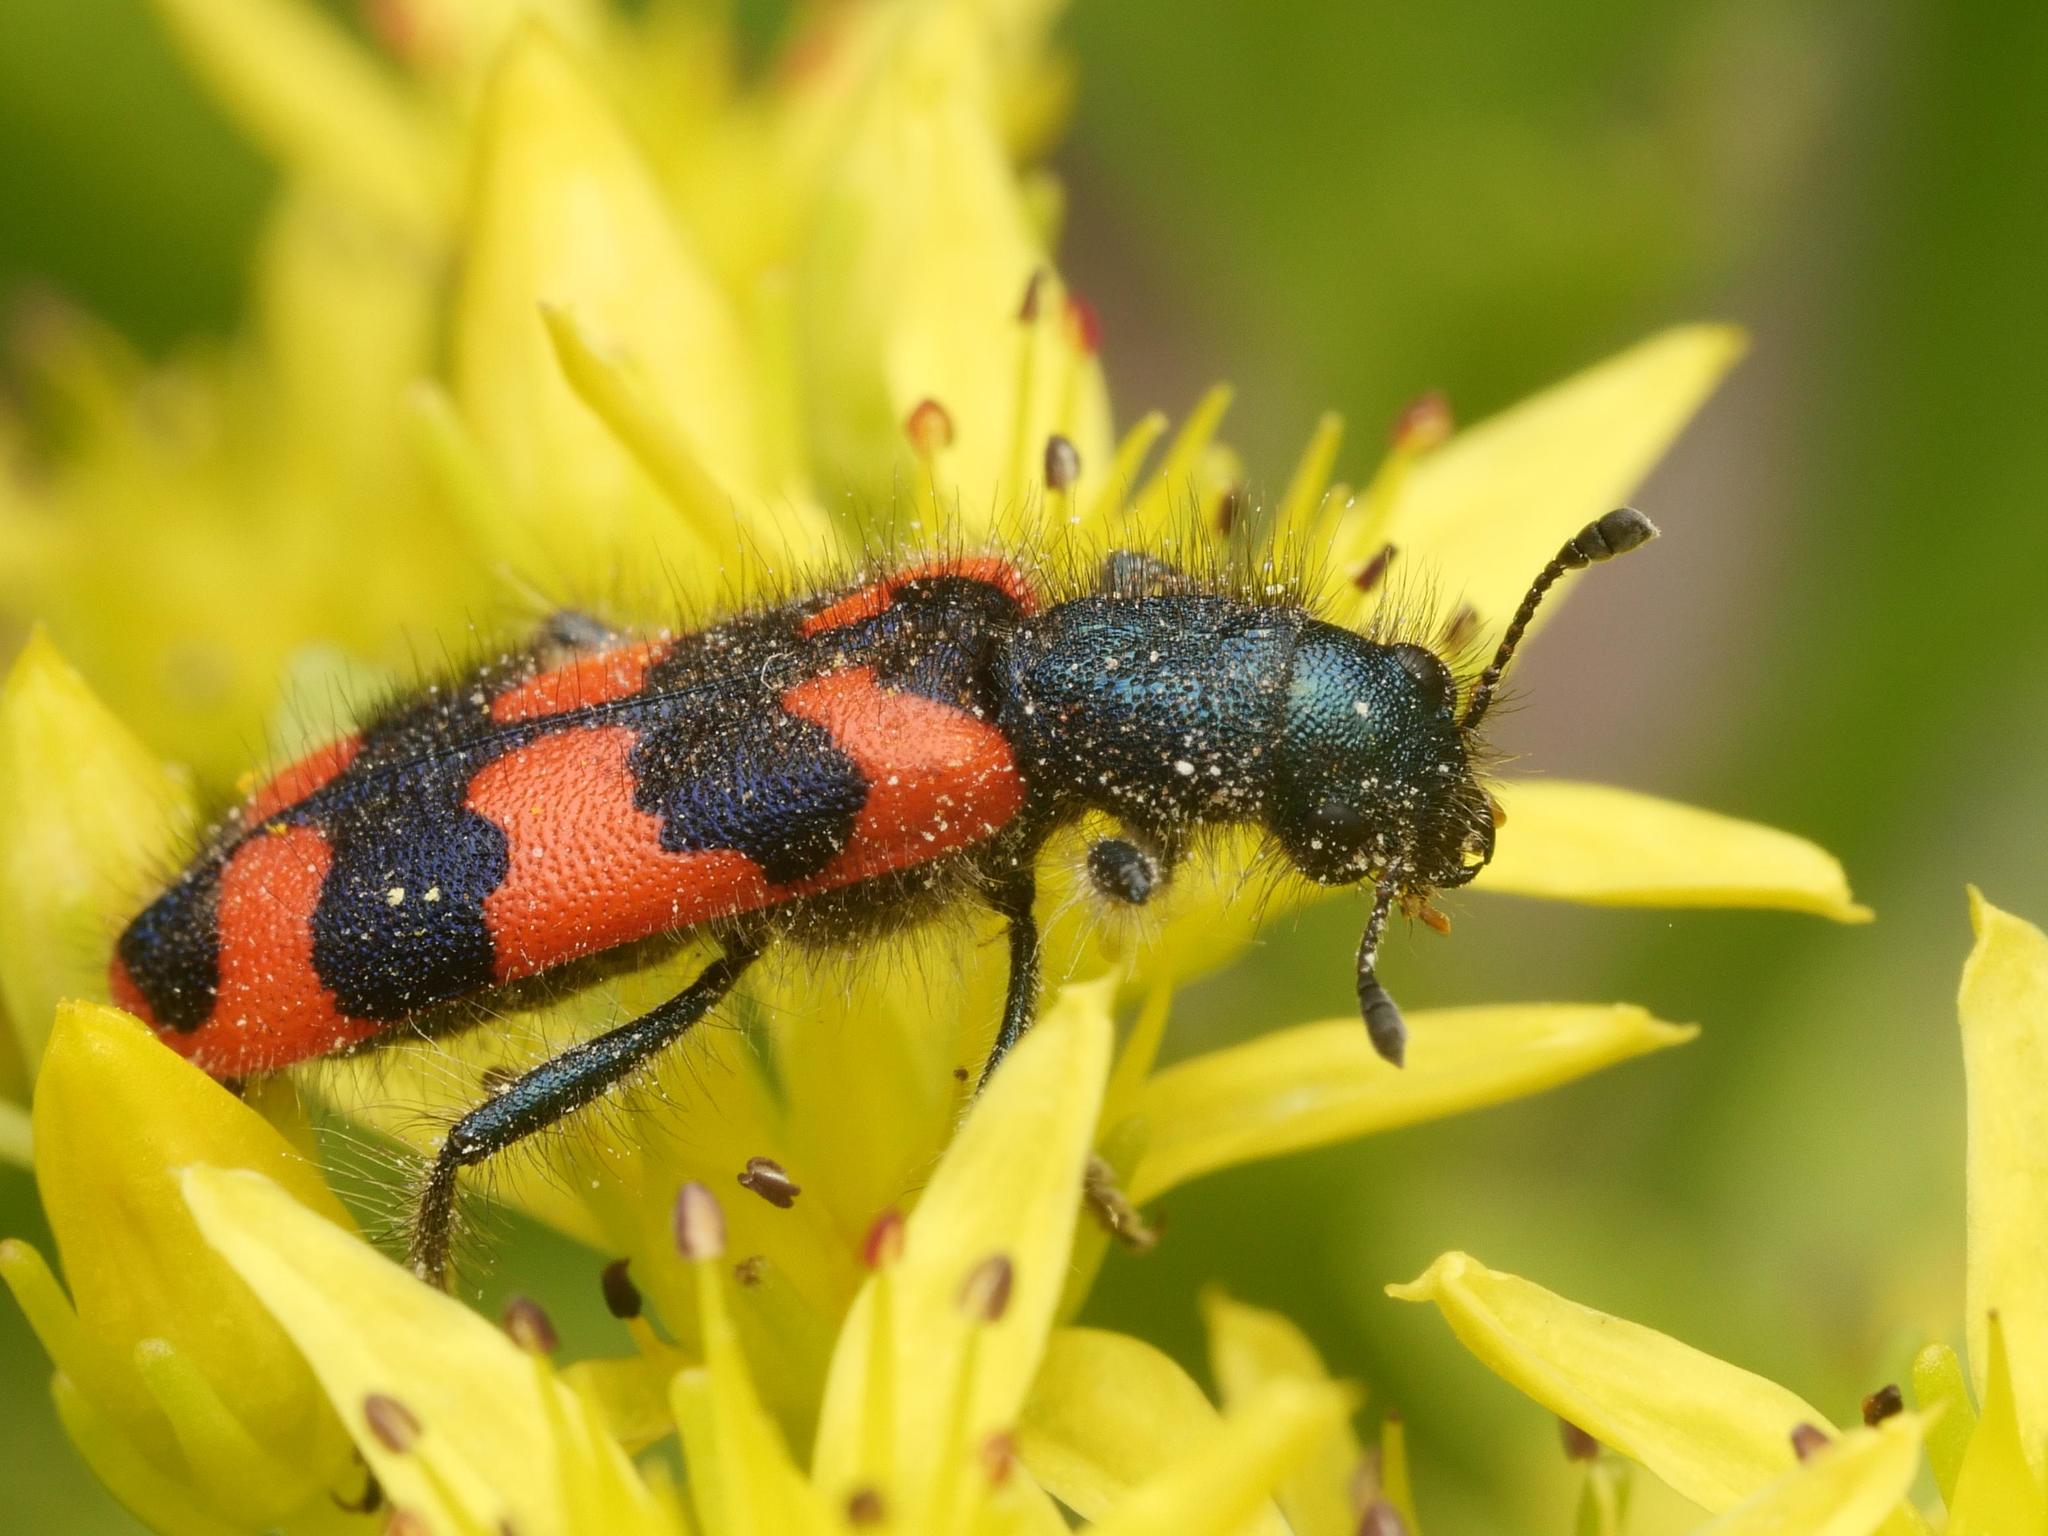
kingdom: Animalia
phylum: Arthropoda
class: Insecta
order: Coleoptera
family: Cleridae
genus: Trichodes
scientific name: Trichodes alvearius
